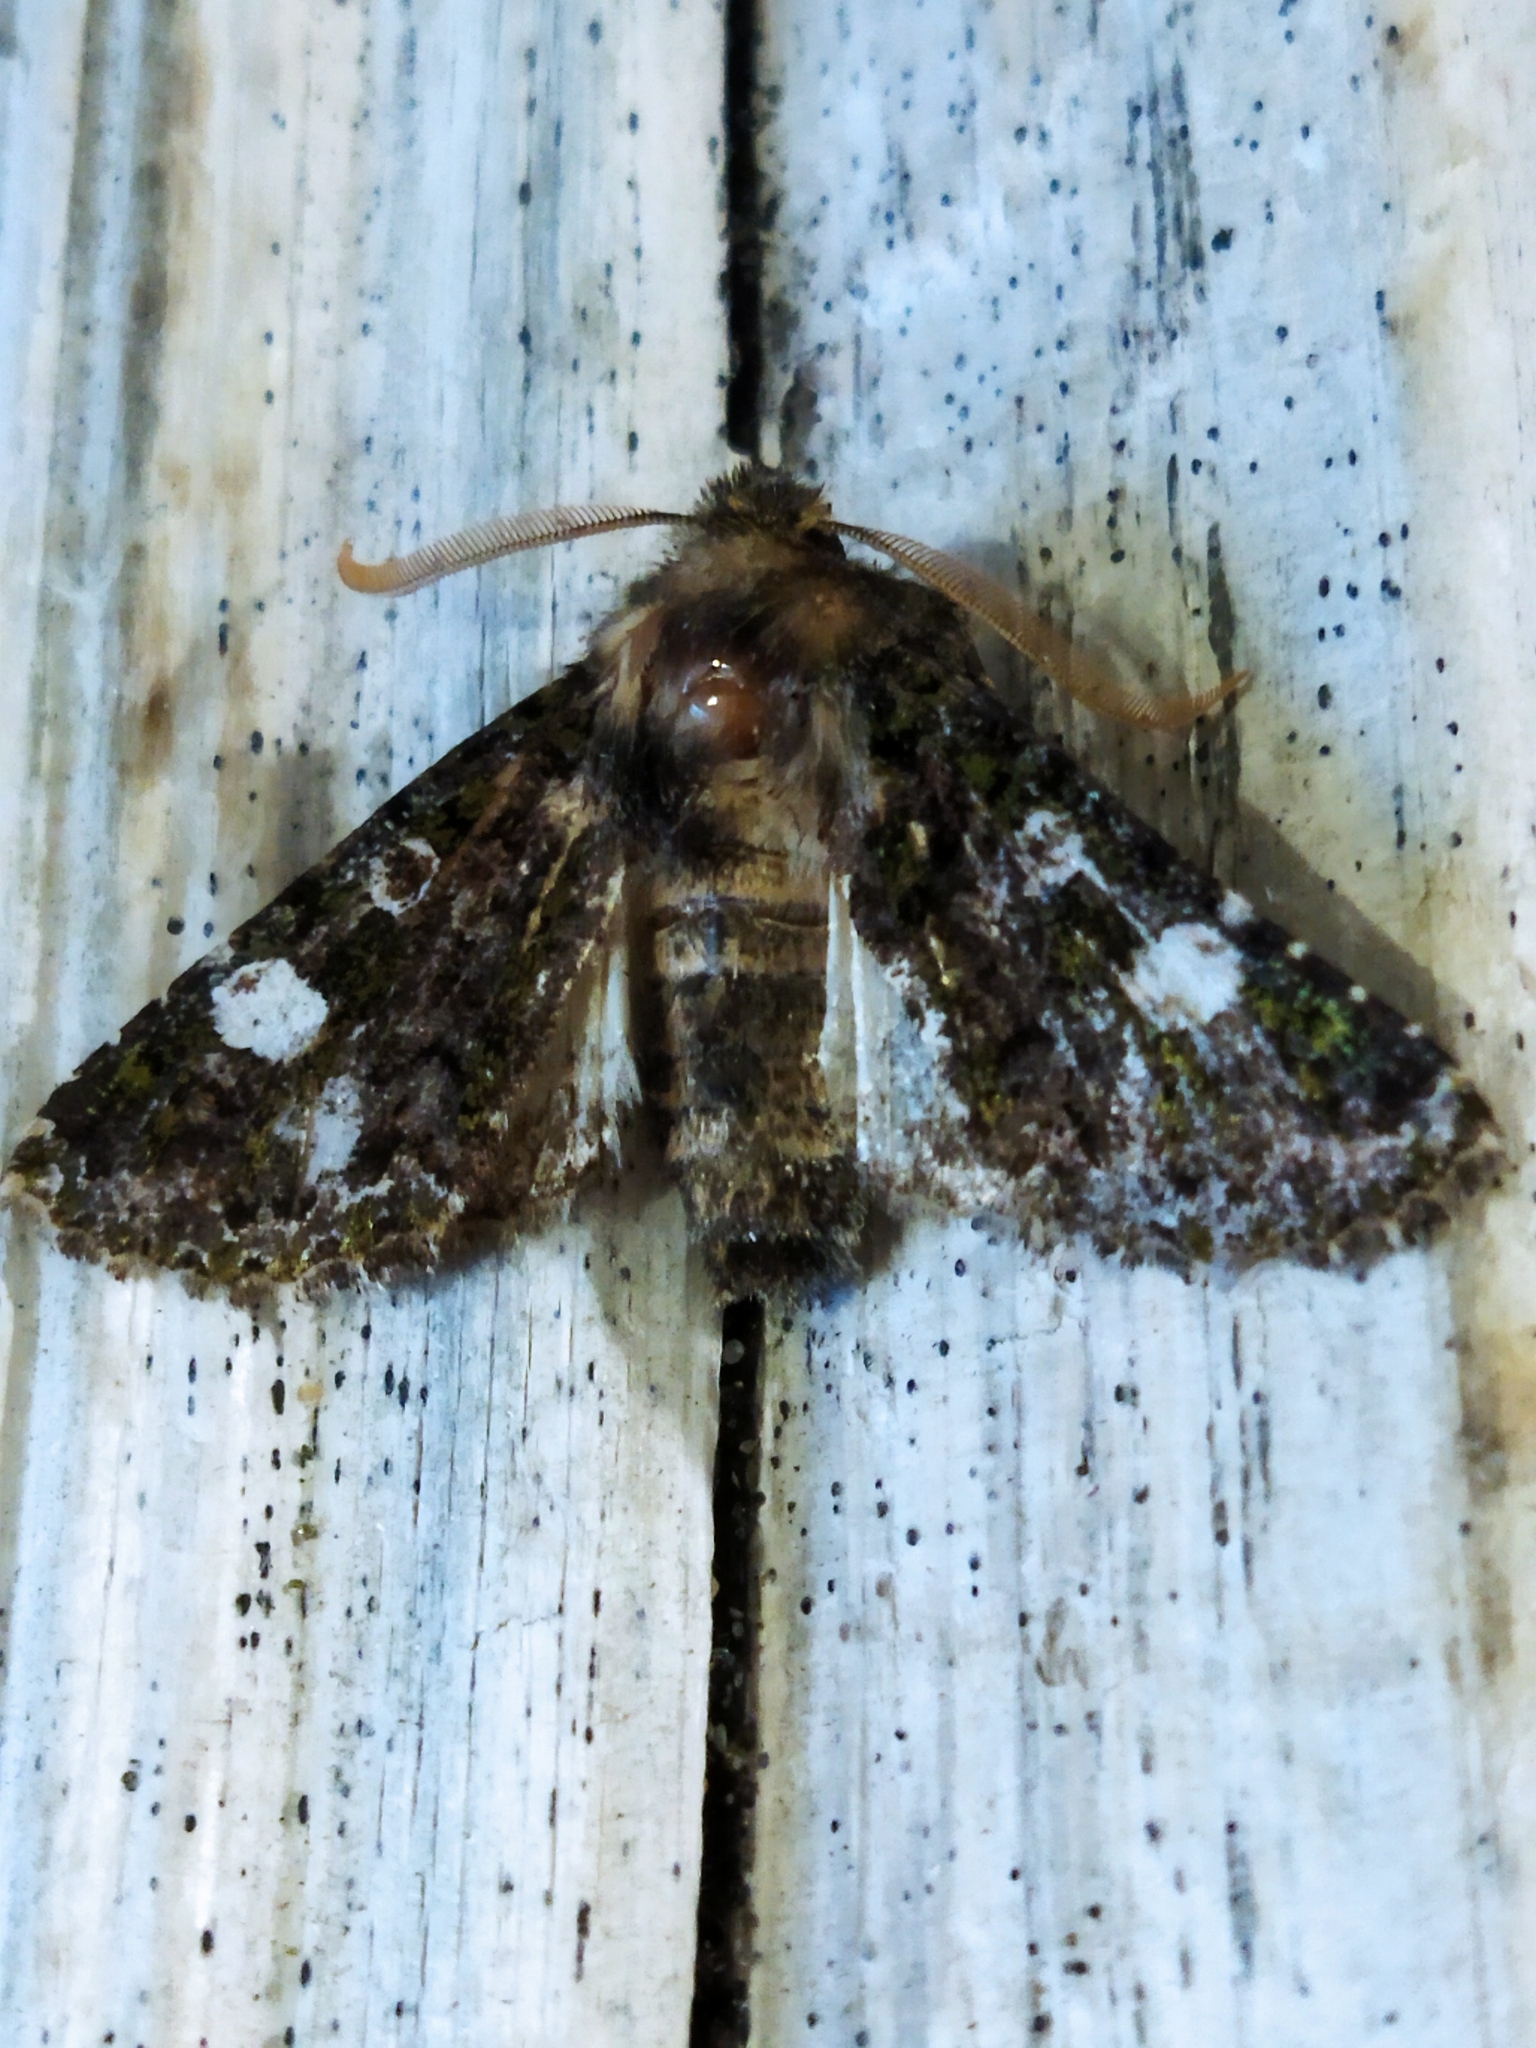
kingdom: Animalia
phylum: Arthropoda
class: Insecta
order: Lepidoptera
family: Noctuidae
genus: Valeria
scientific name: Valeria oleagina
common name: Green-brindled dot
